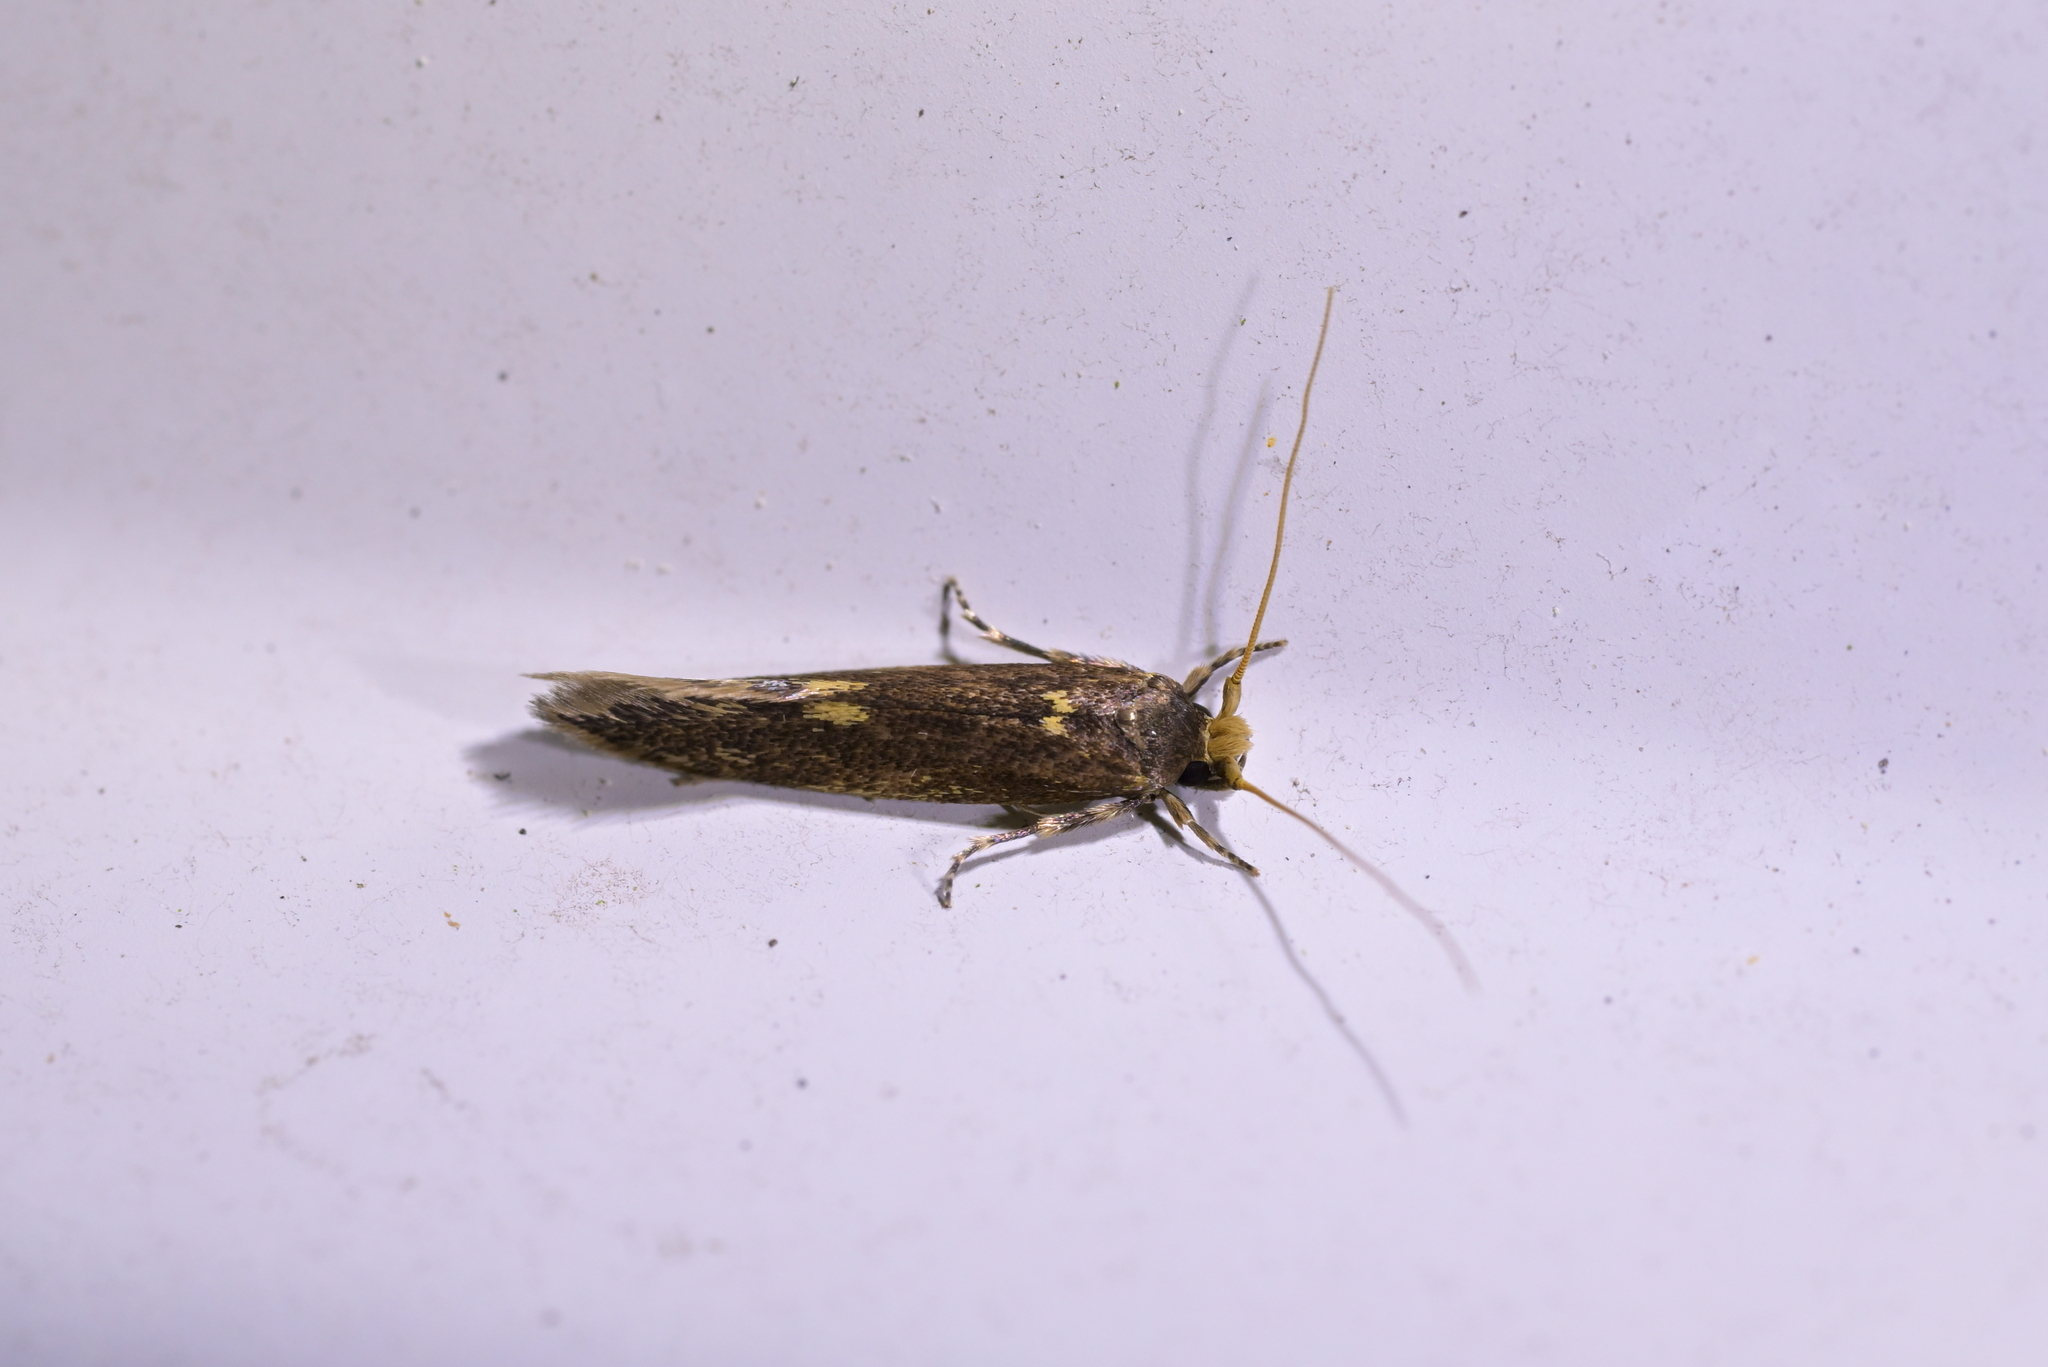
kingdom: Animalia
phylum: Arthropoda
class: Insecta
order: Lepidoptera
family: Tineidae
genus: Opogona
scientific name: Opogona omoscopa
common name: Moth
